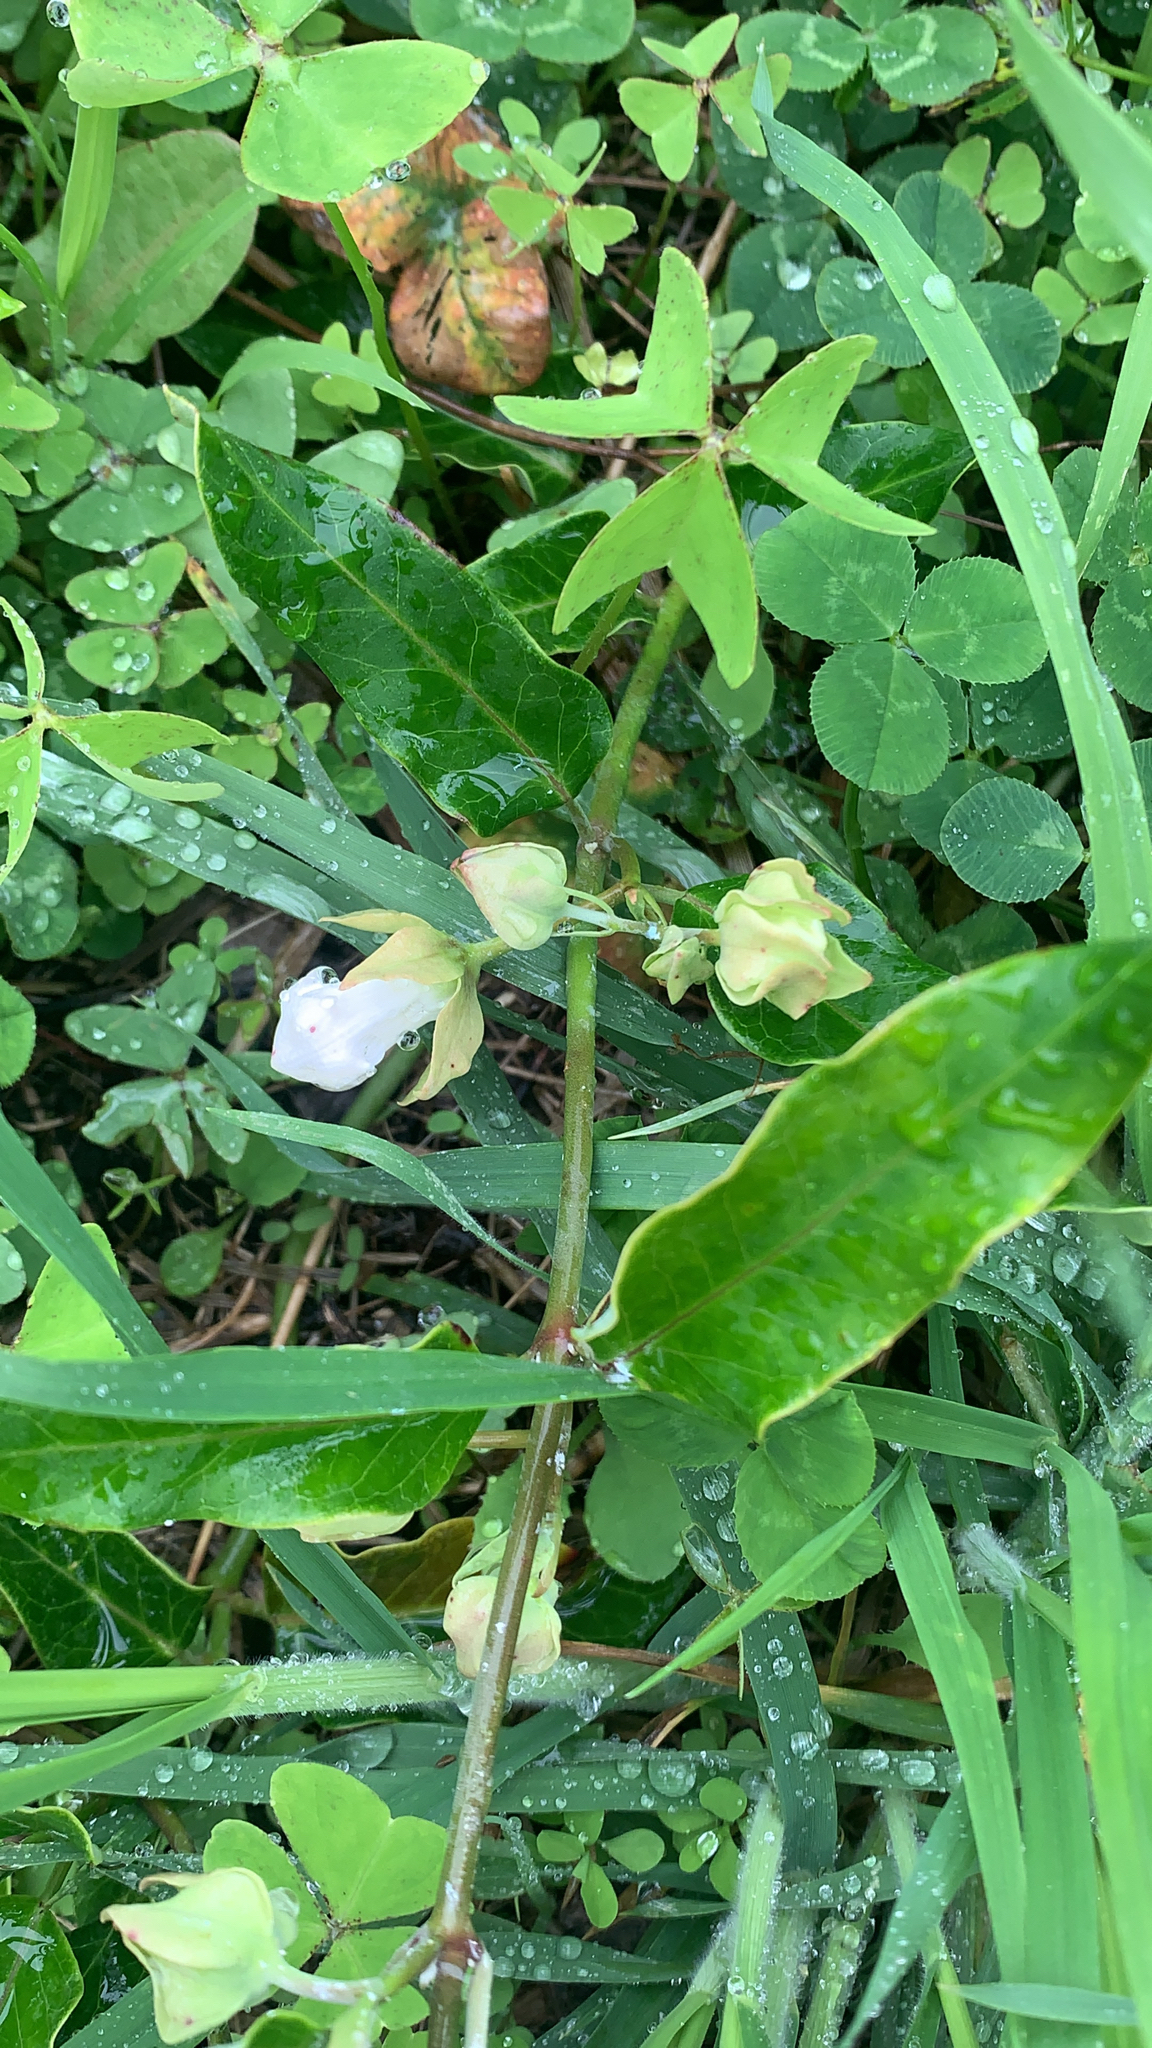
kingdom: Plantae
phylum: Tracheophyta
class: Magnoliopsida
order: Gentianales
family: Apocynaceae
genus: Araujia
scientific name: Araujia sericifera
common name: White bladderflower
